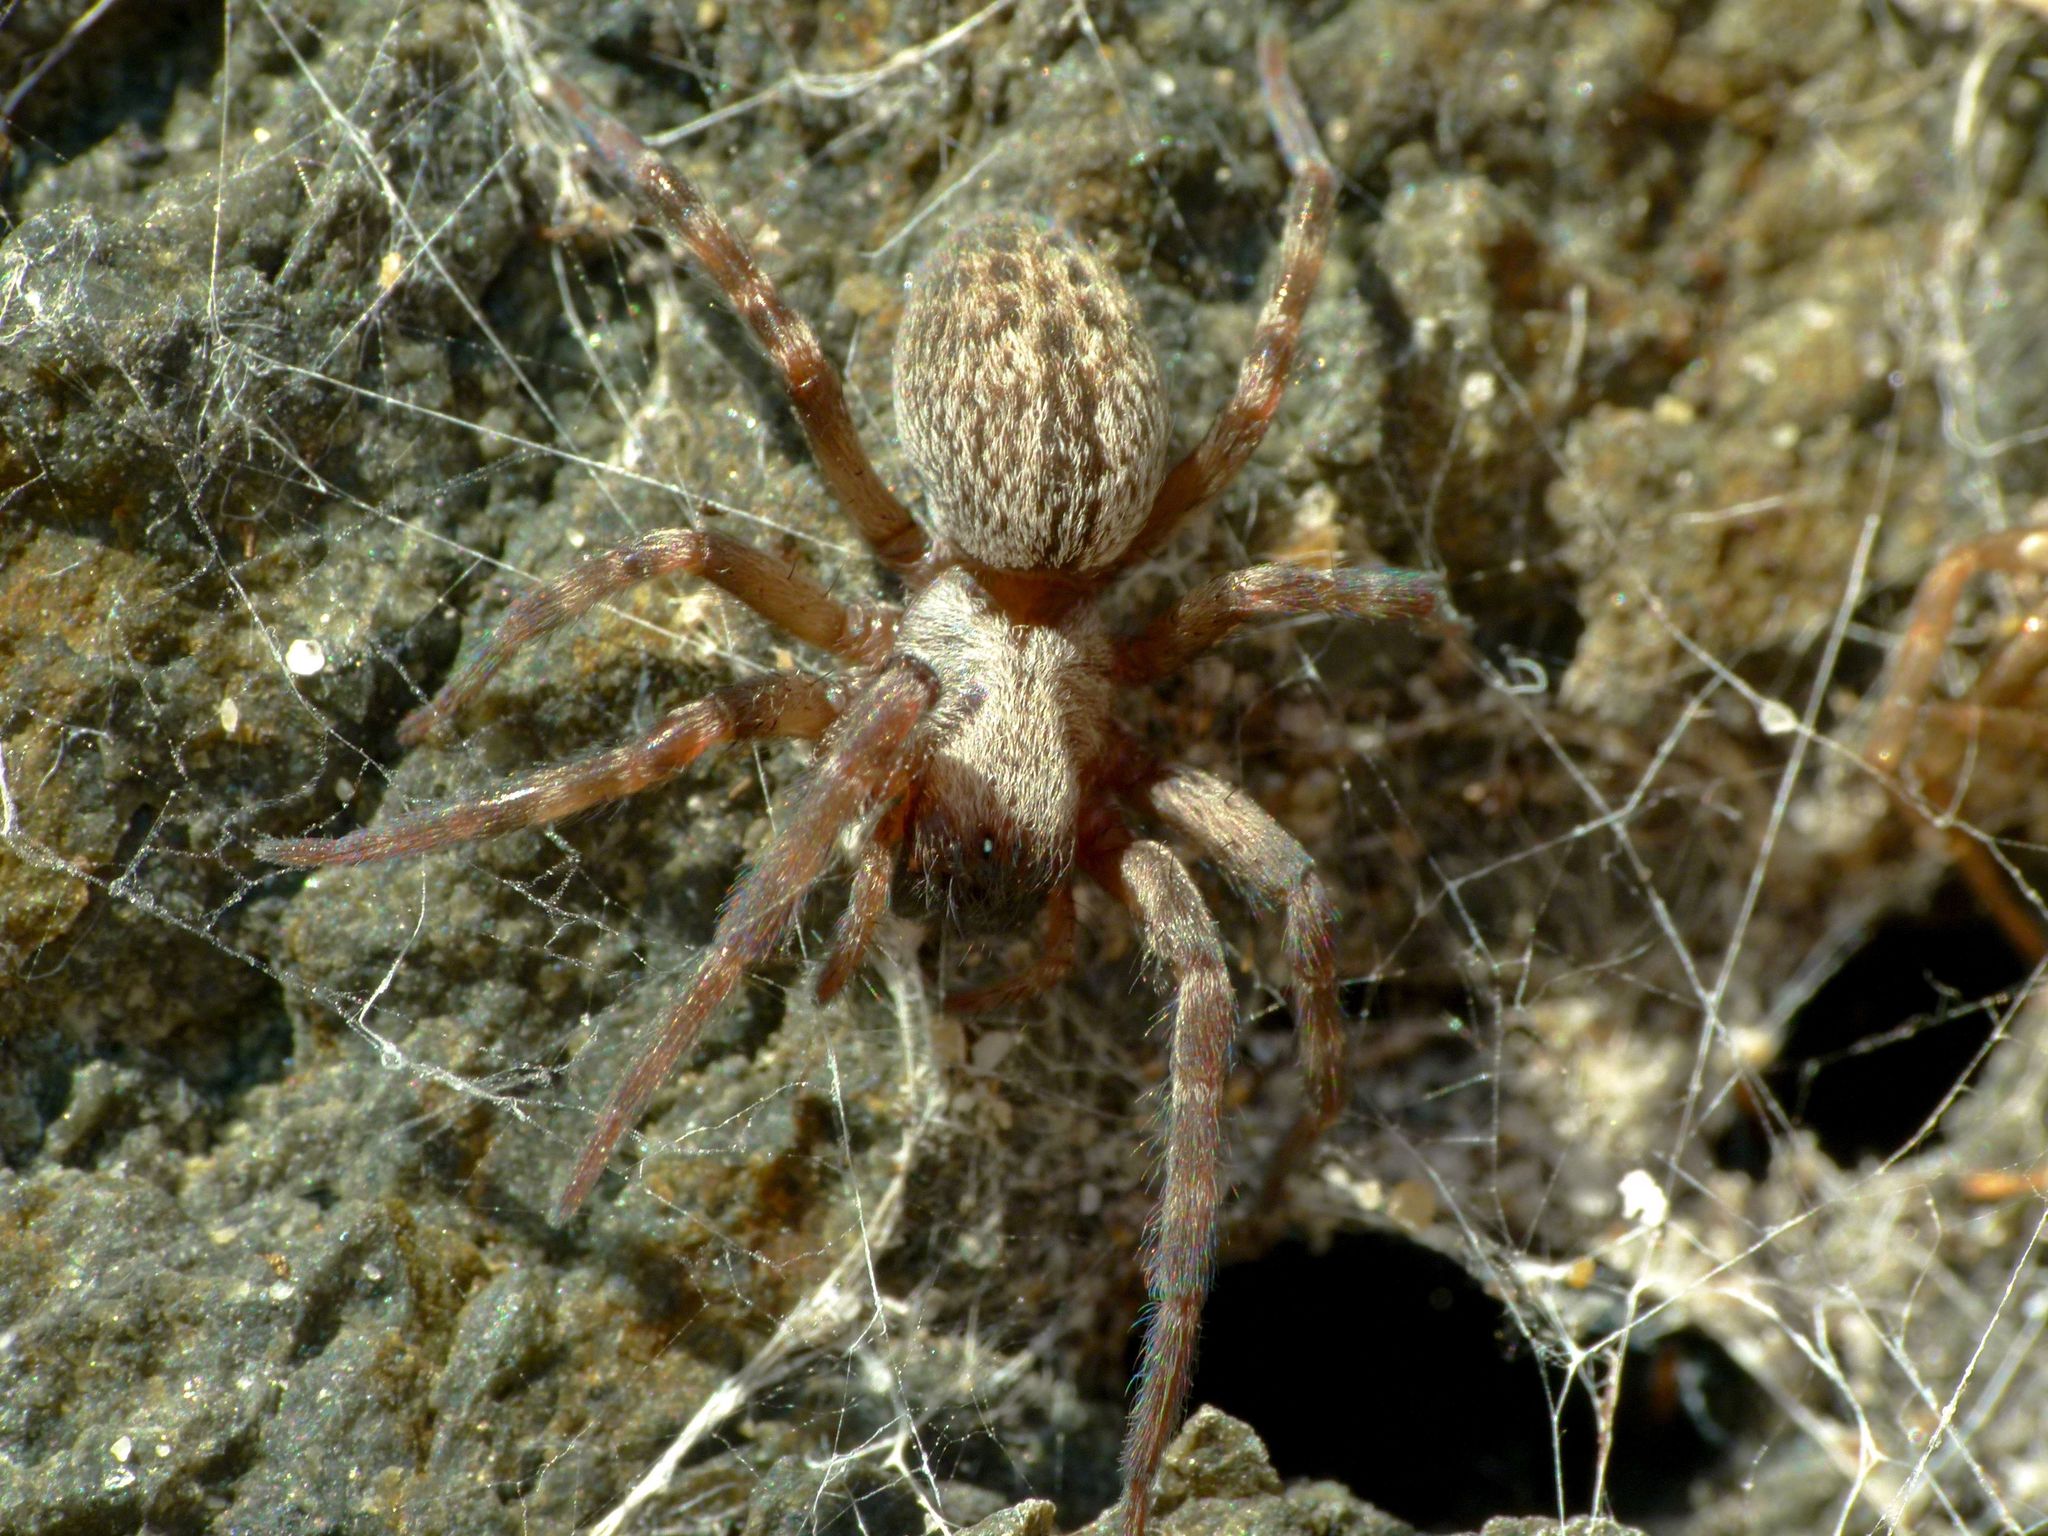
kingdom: Animalia
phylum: Arthropoda
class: Arachnida
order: Araneae
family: Desidae
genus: Badumna
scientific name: Badumna longinqua
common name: Gray house spider
